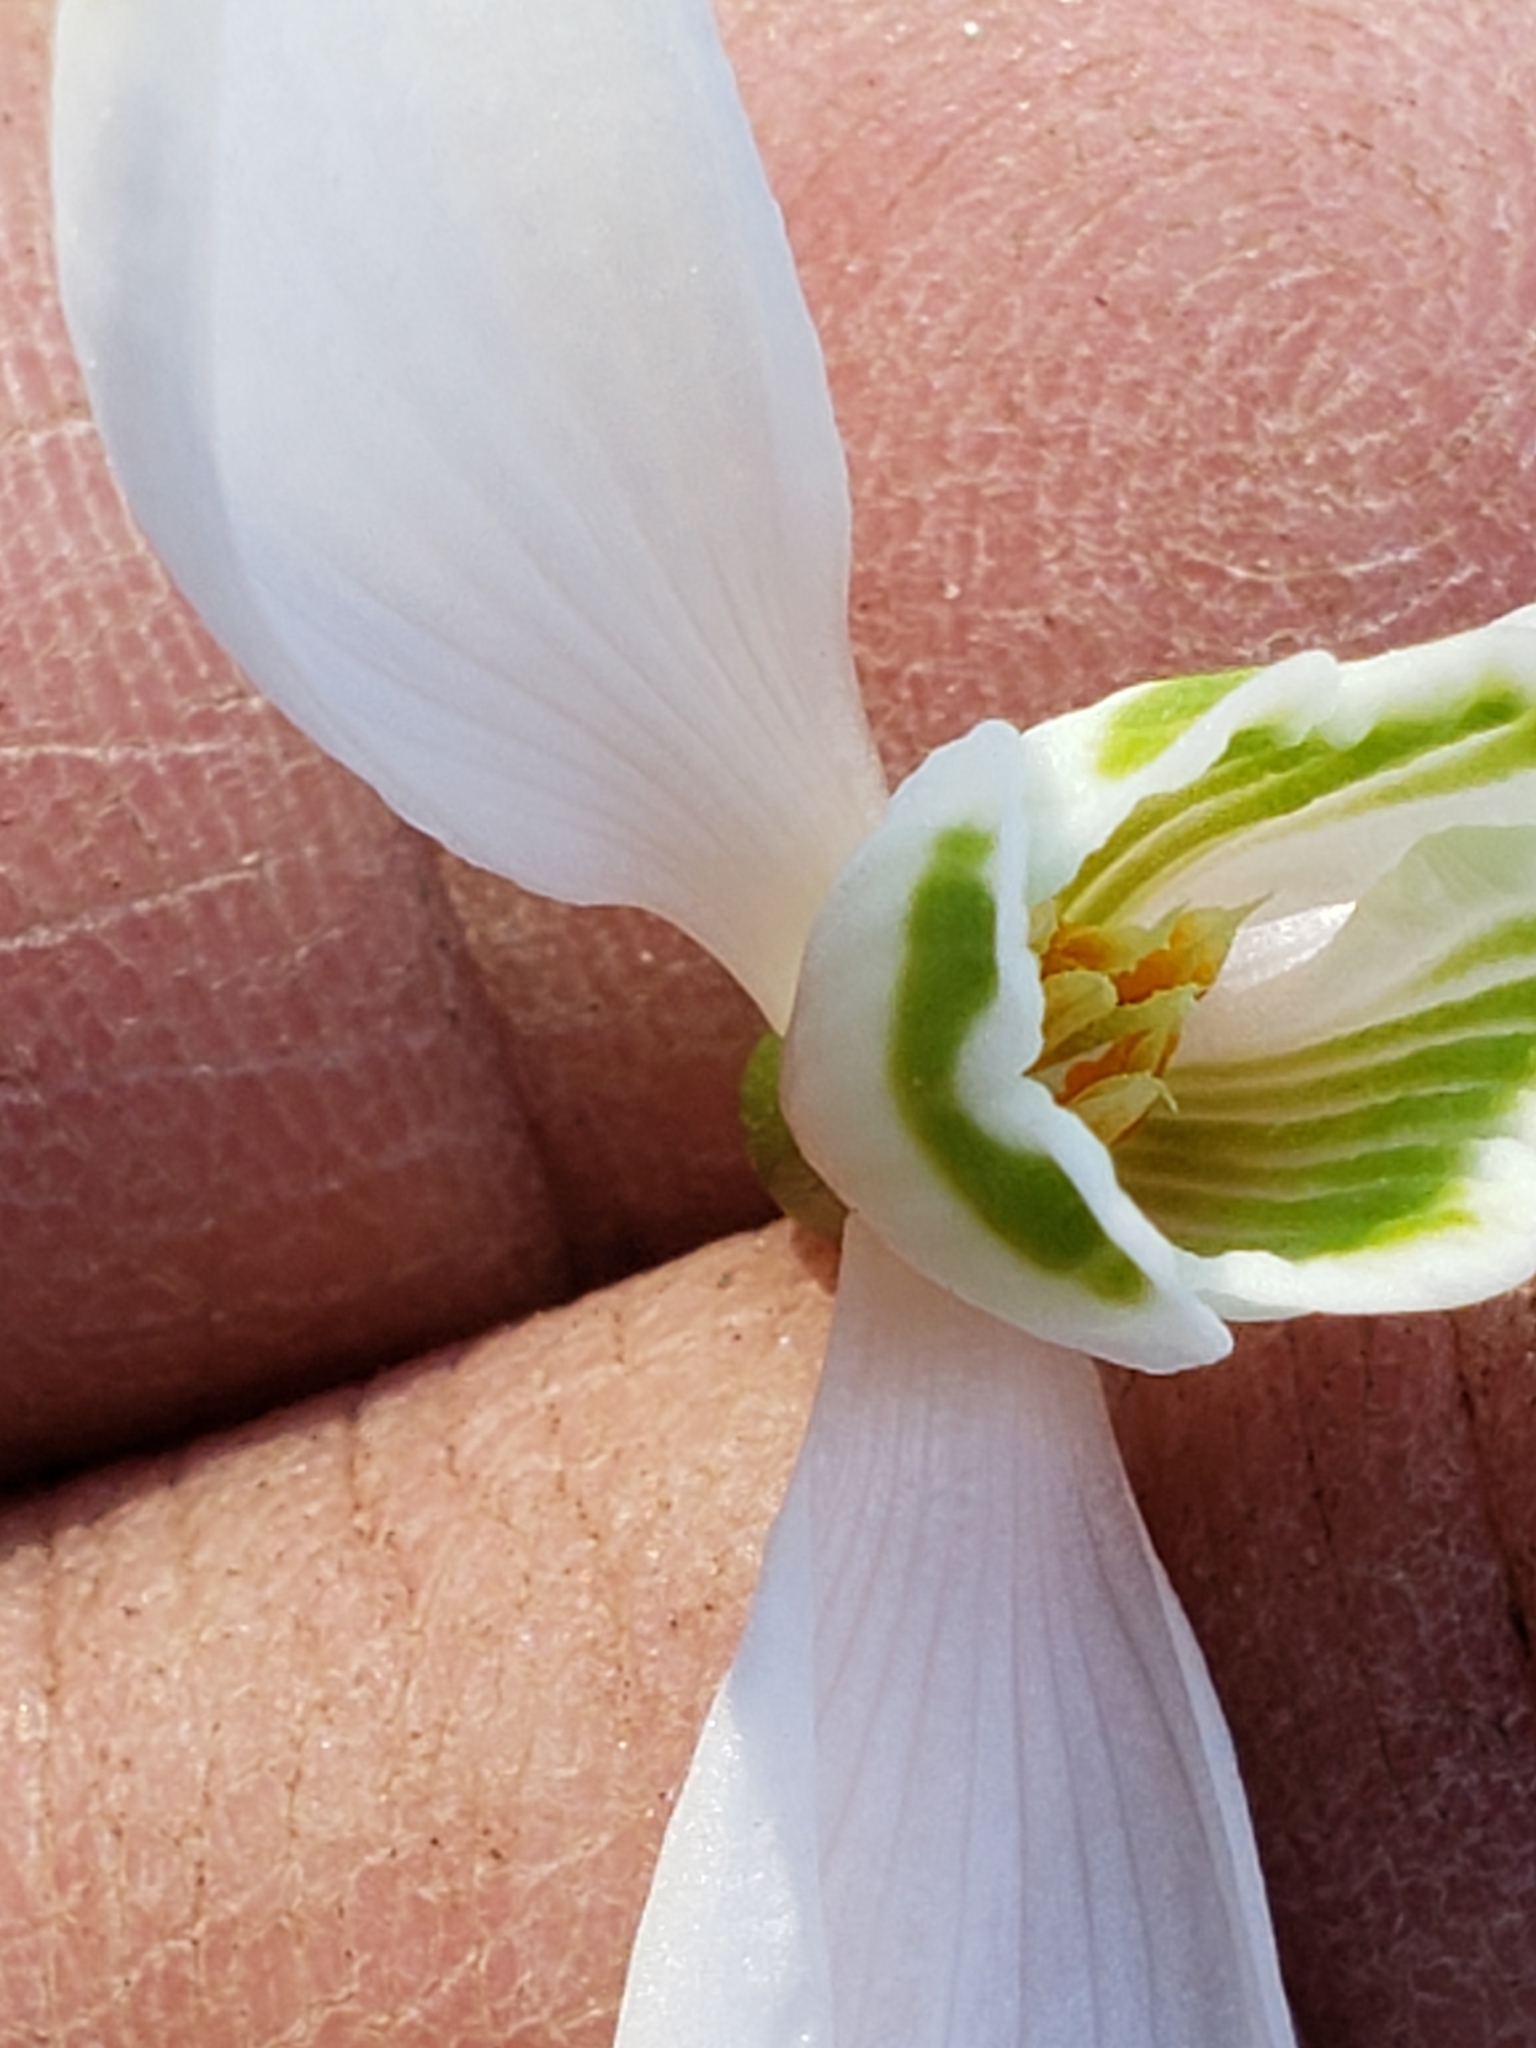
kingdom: Plantae
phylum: Tracheophyta
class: Liliopsida
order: Asparagales
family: Amaryllidaceae
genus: Galanthus
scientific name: Galanthus nivalis
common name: Snowdrop
